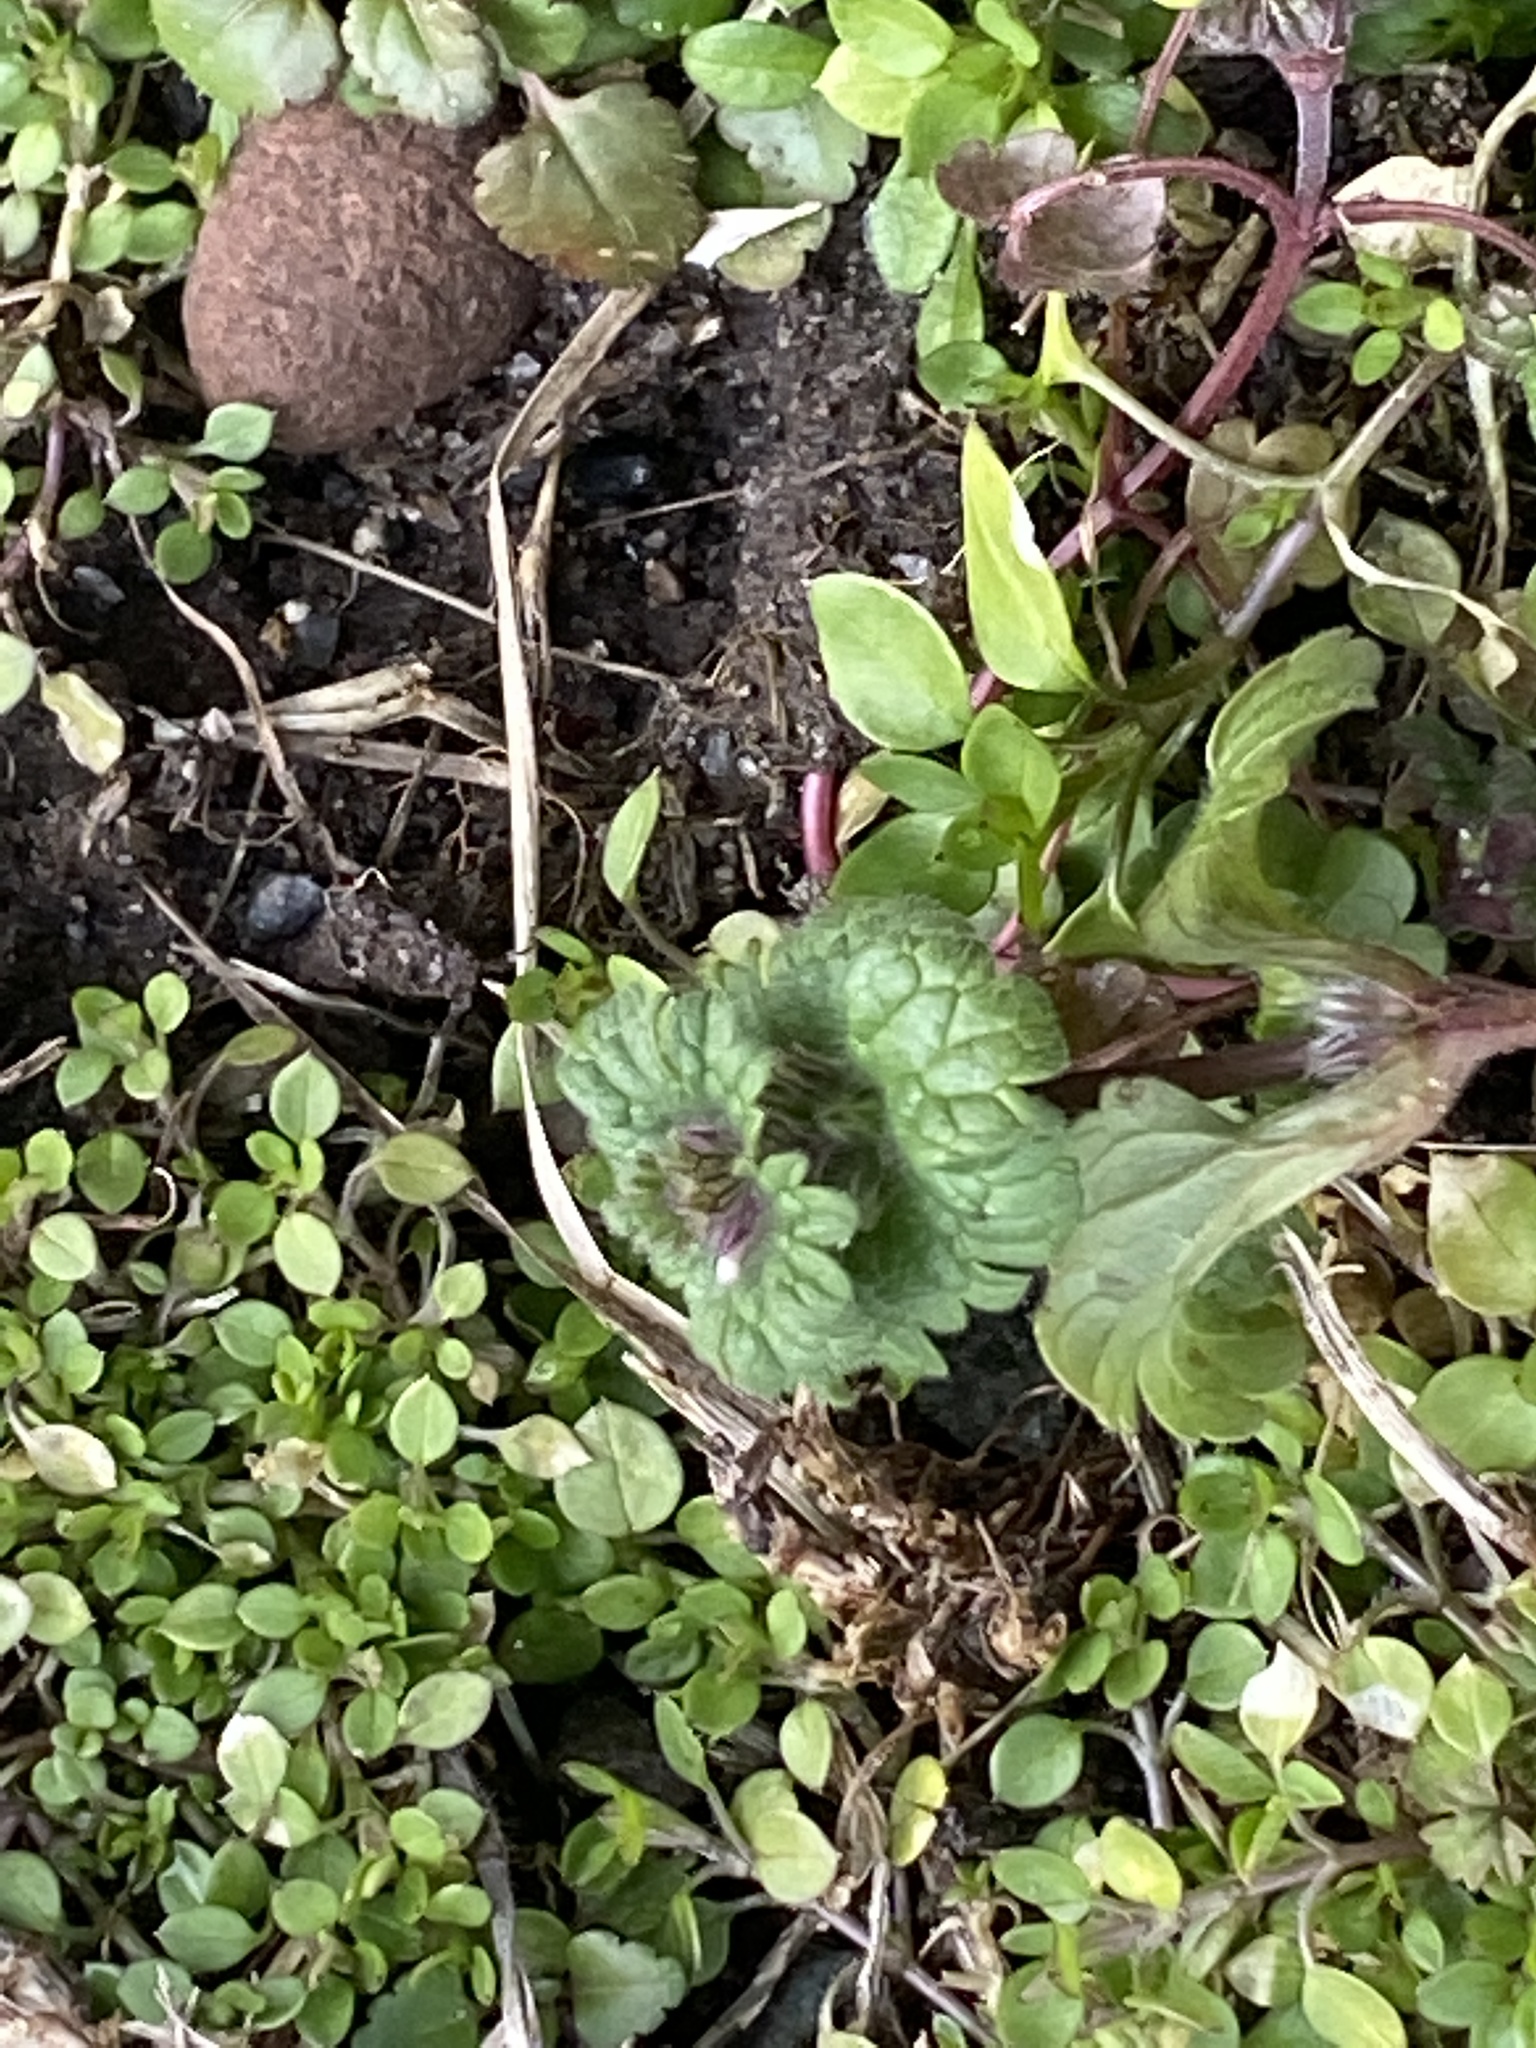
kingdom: Plantae
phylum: Tracheophyta
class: Magnoliopsida
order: Lamiales
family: Lamiaceae
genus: Lamium
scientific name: Lamium amplexicaule
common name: Henbit dead-nettle
